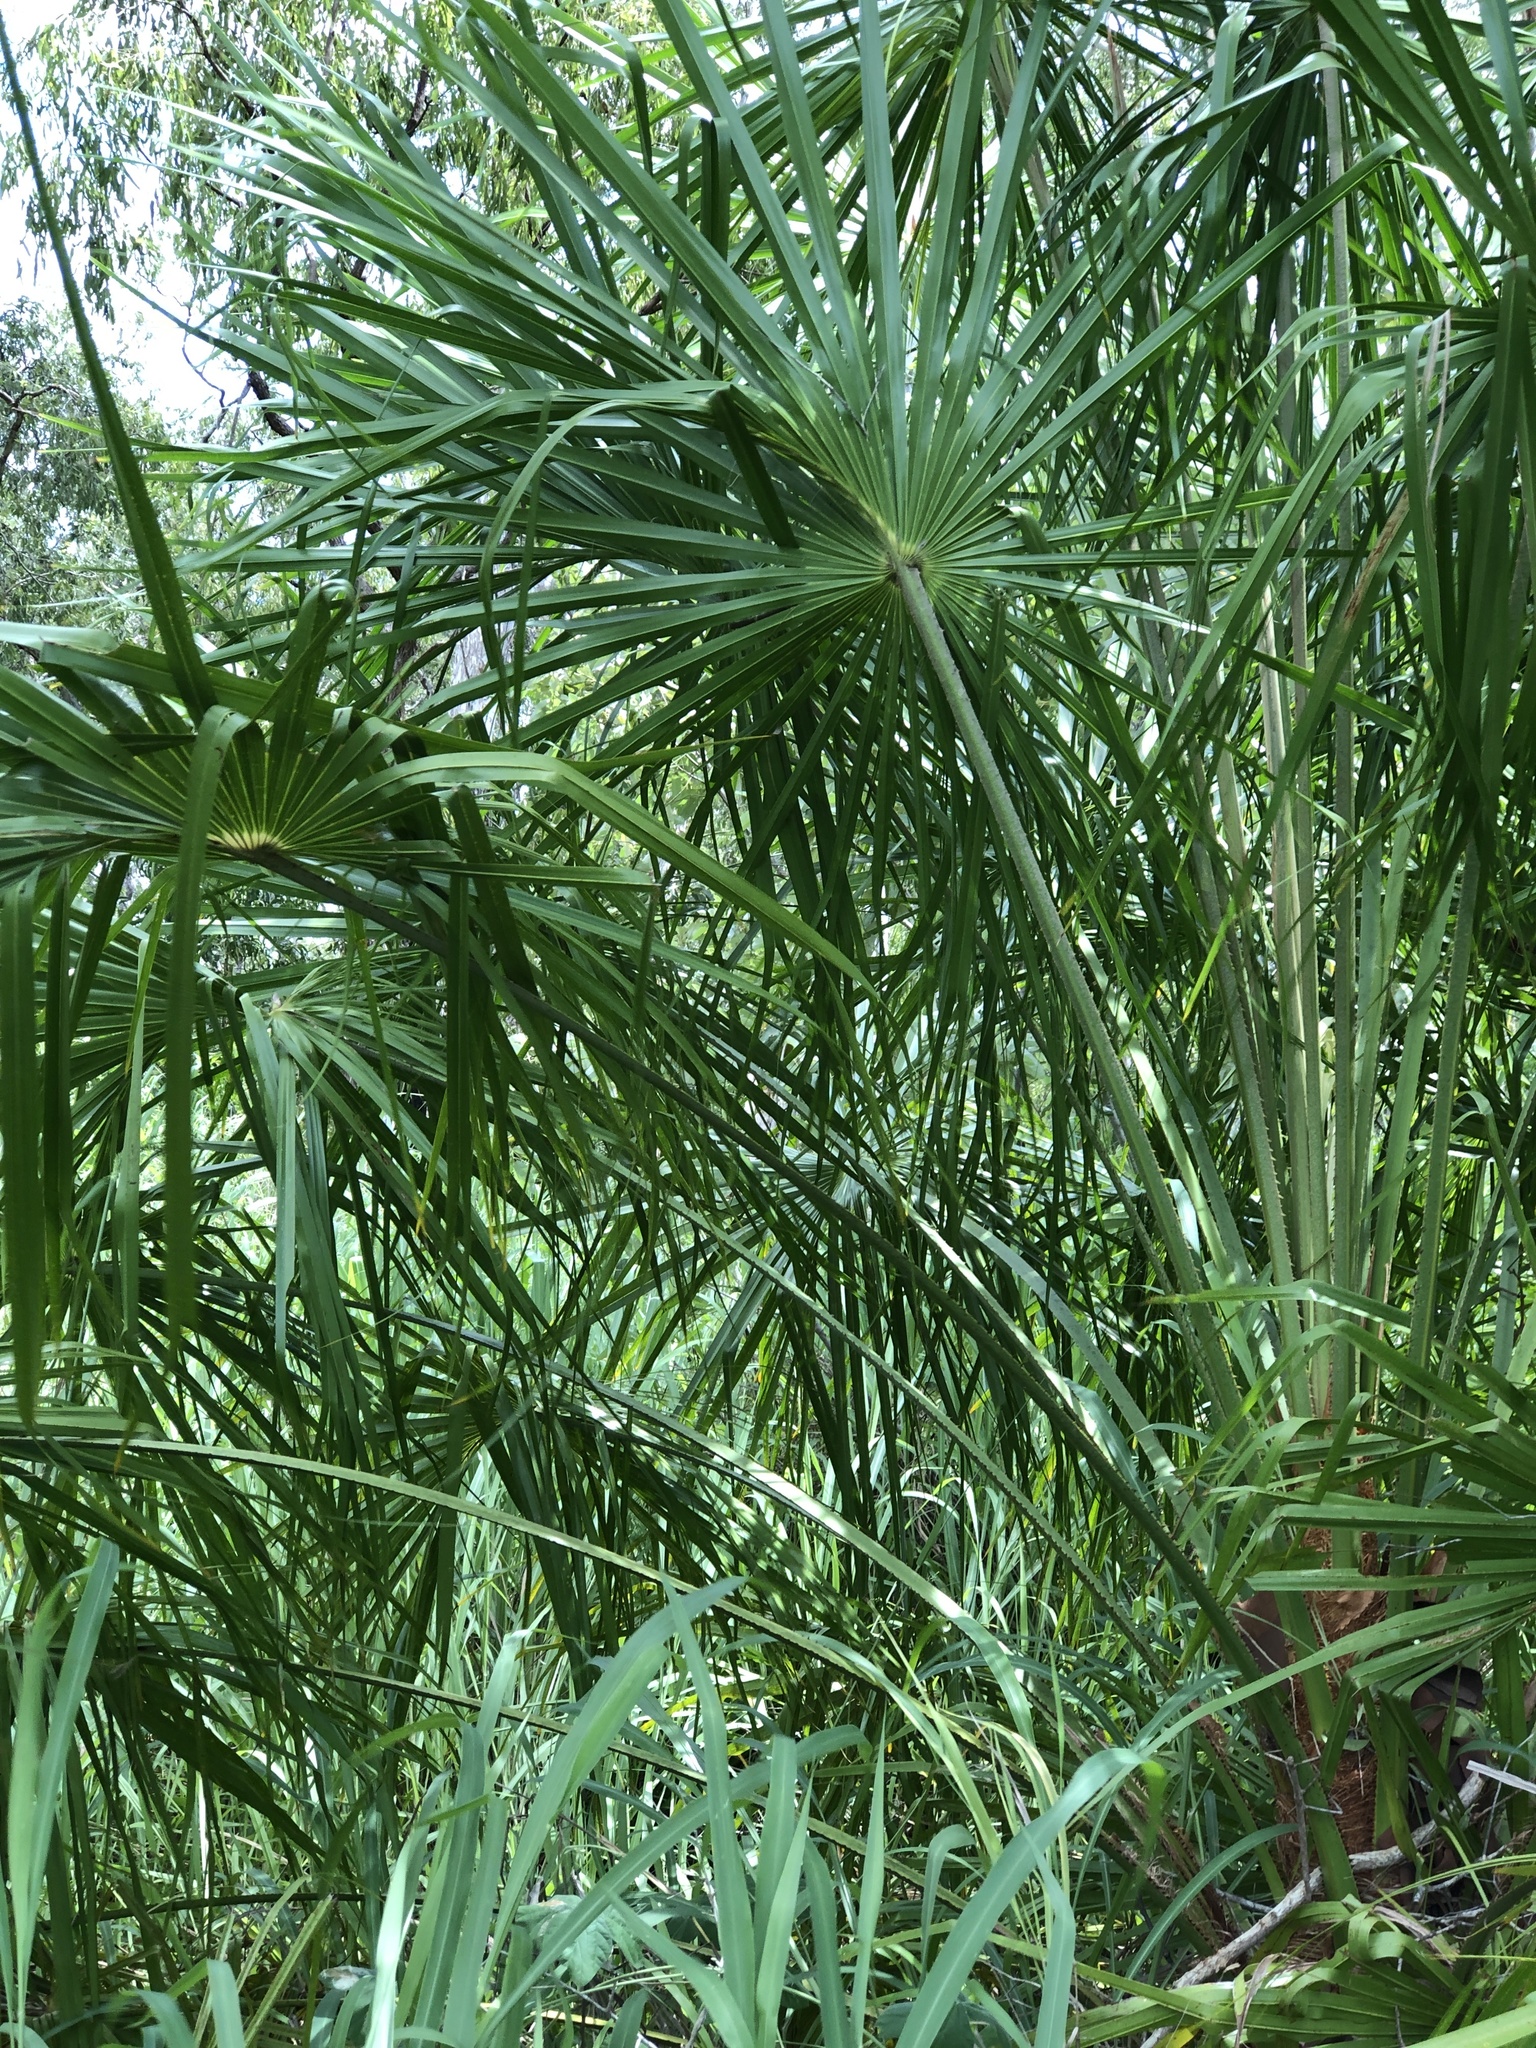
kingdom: Plantae
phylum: Tracheophyta
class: Liliopsida
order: Arecales
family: Arecaceae
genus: Livistona
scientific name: Livistona decora
